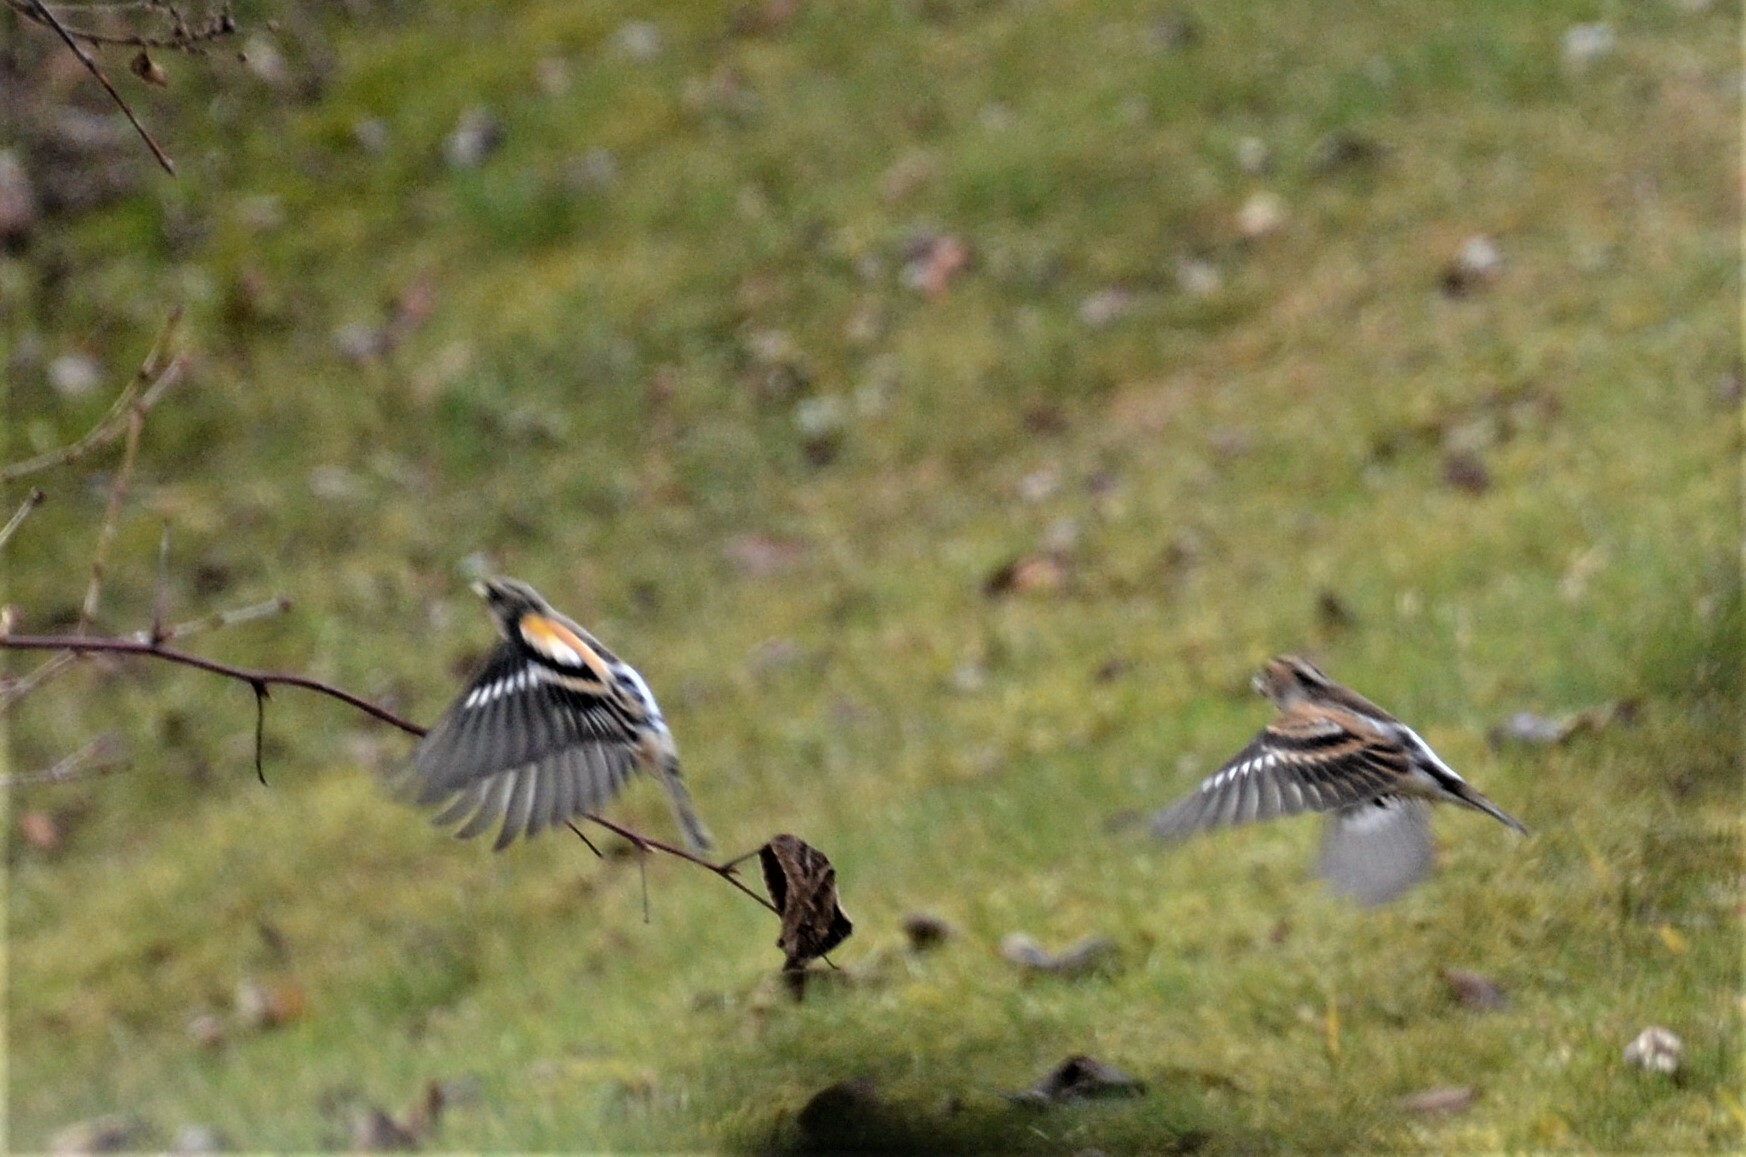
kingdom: Animalia
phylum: Chordata
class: Aves
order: Passeriformes
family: Fringillidae
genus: Fringilla
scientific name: Fringilla montifringilla
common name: Brambling
